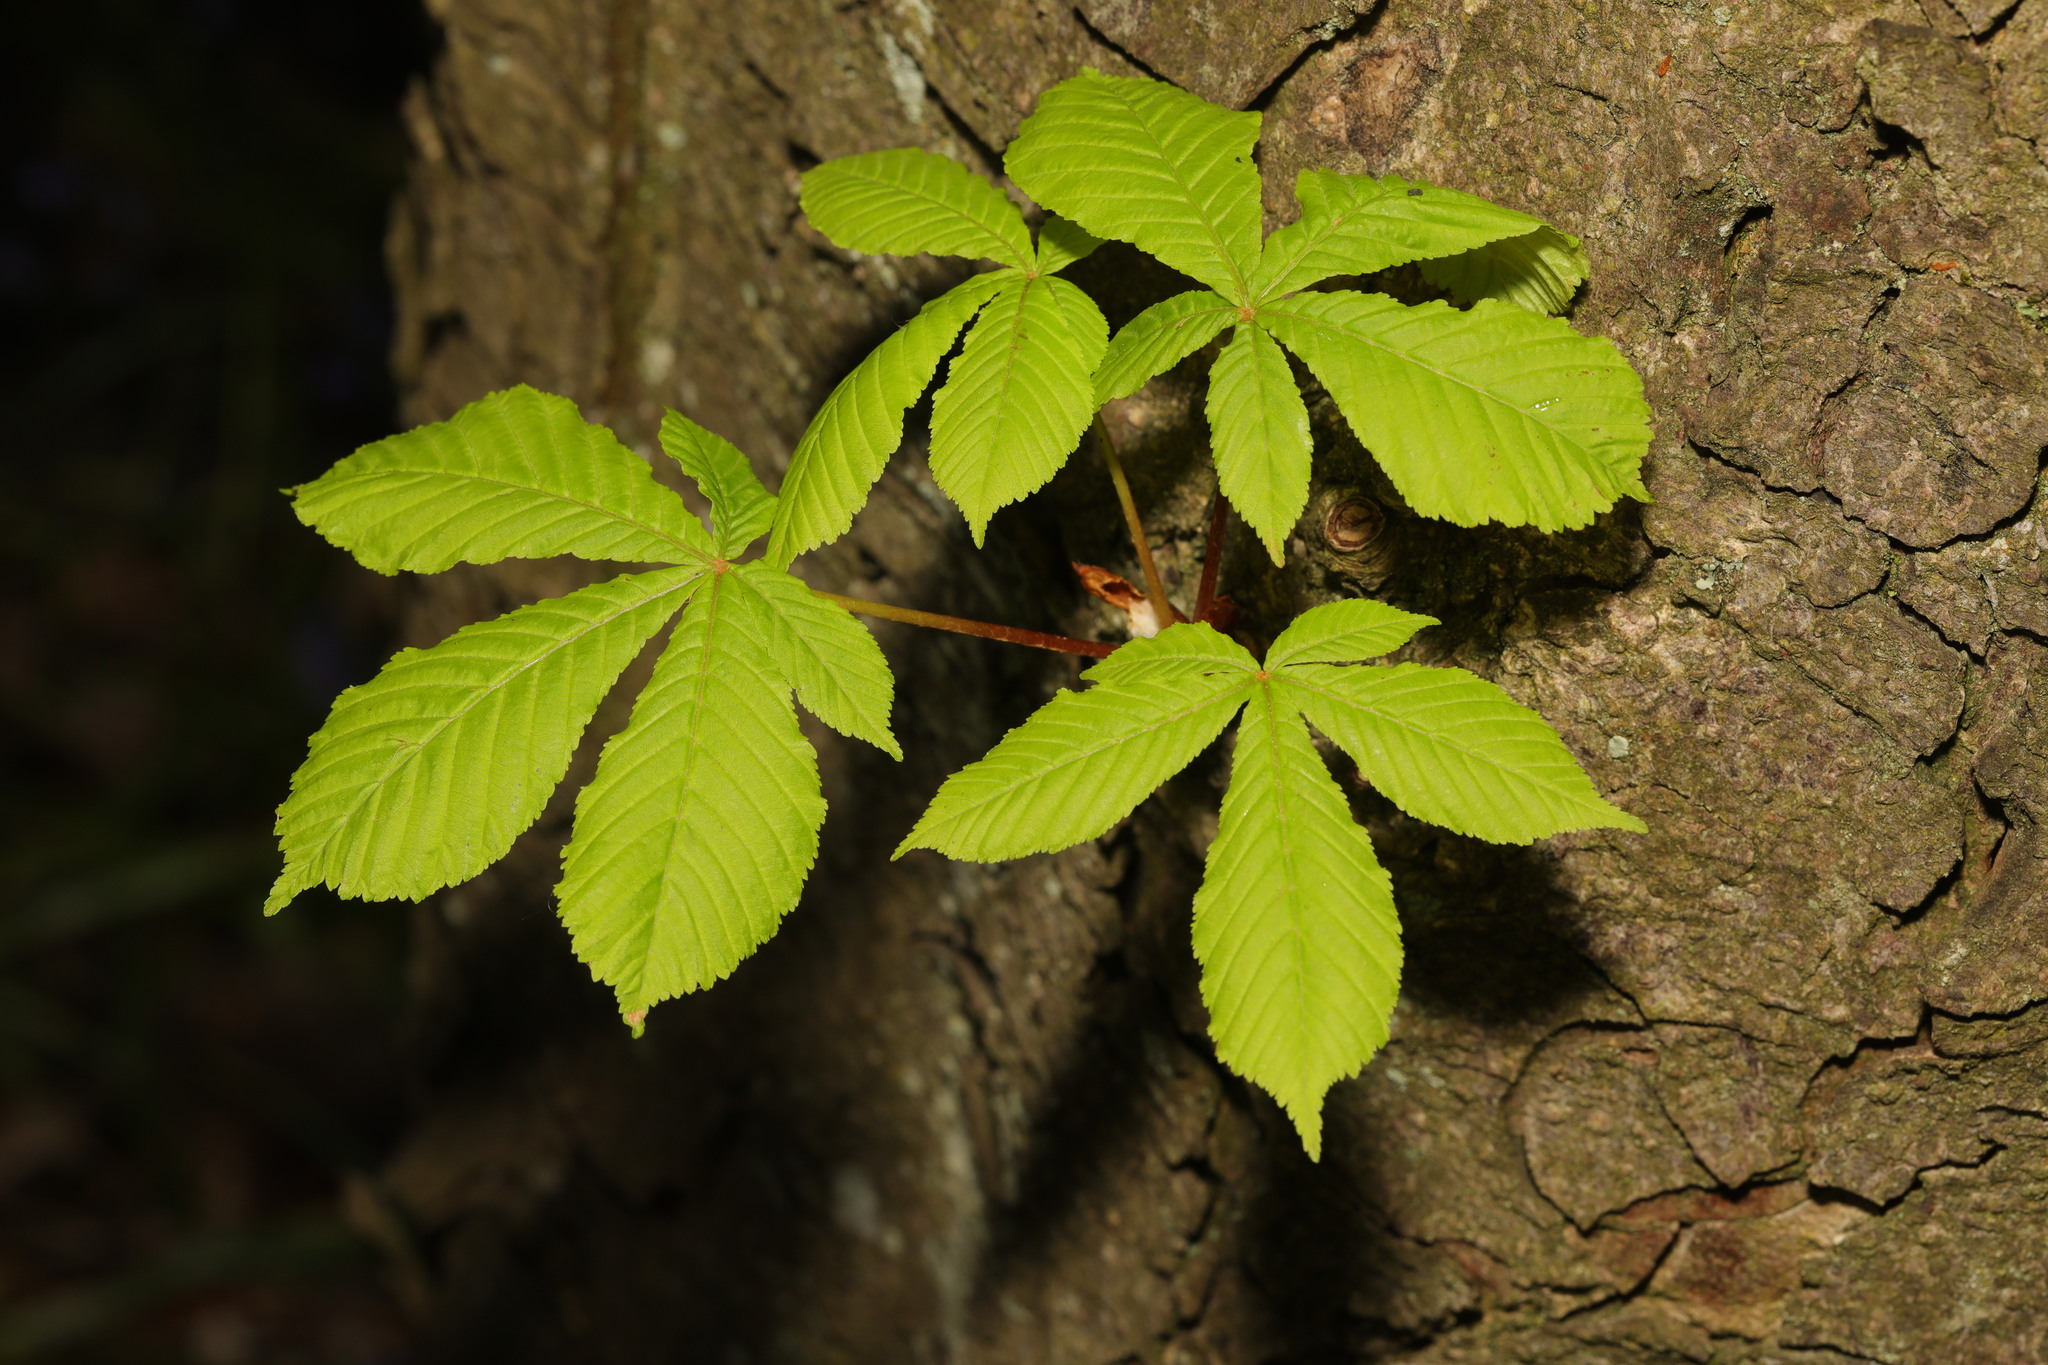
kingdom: Plantae
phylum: Tracheophyta
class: Magnoliopsida
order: Sapindales
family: Sapindaceae
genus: Aesculus
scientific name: Aesculus hippocastanum
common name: Horse-chestnut
